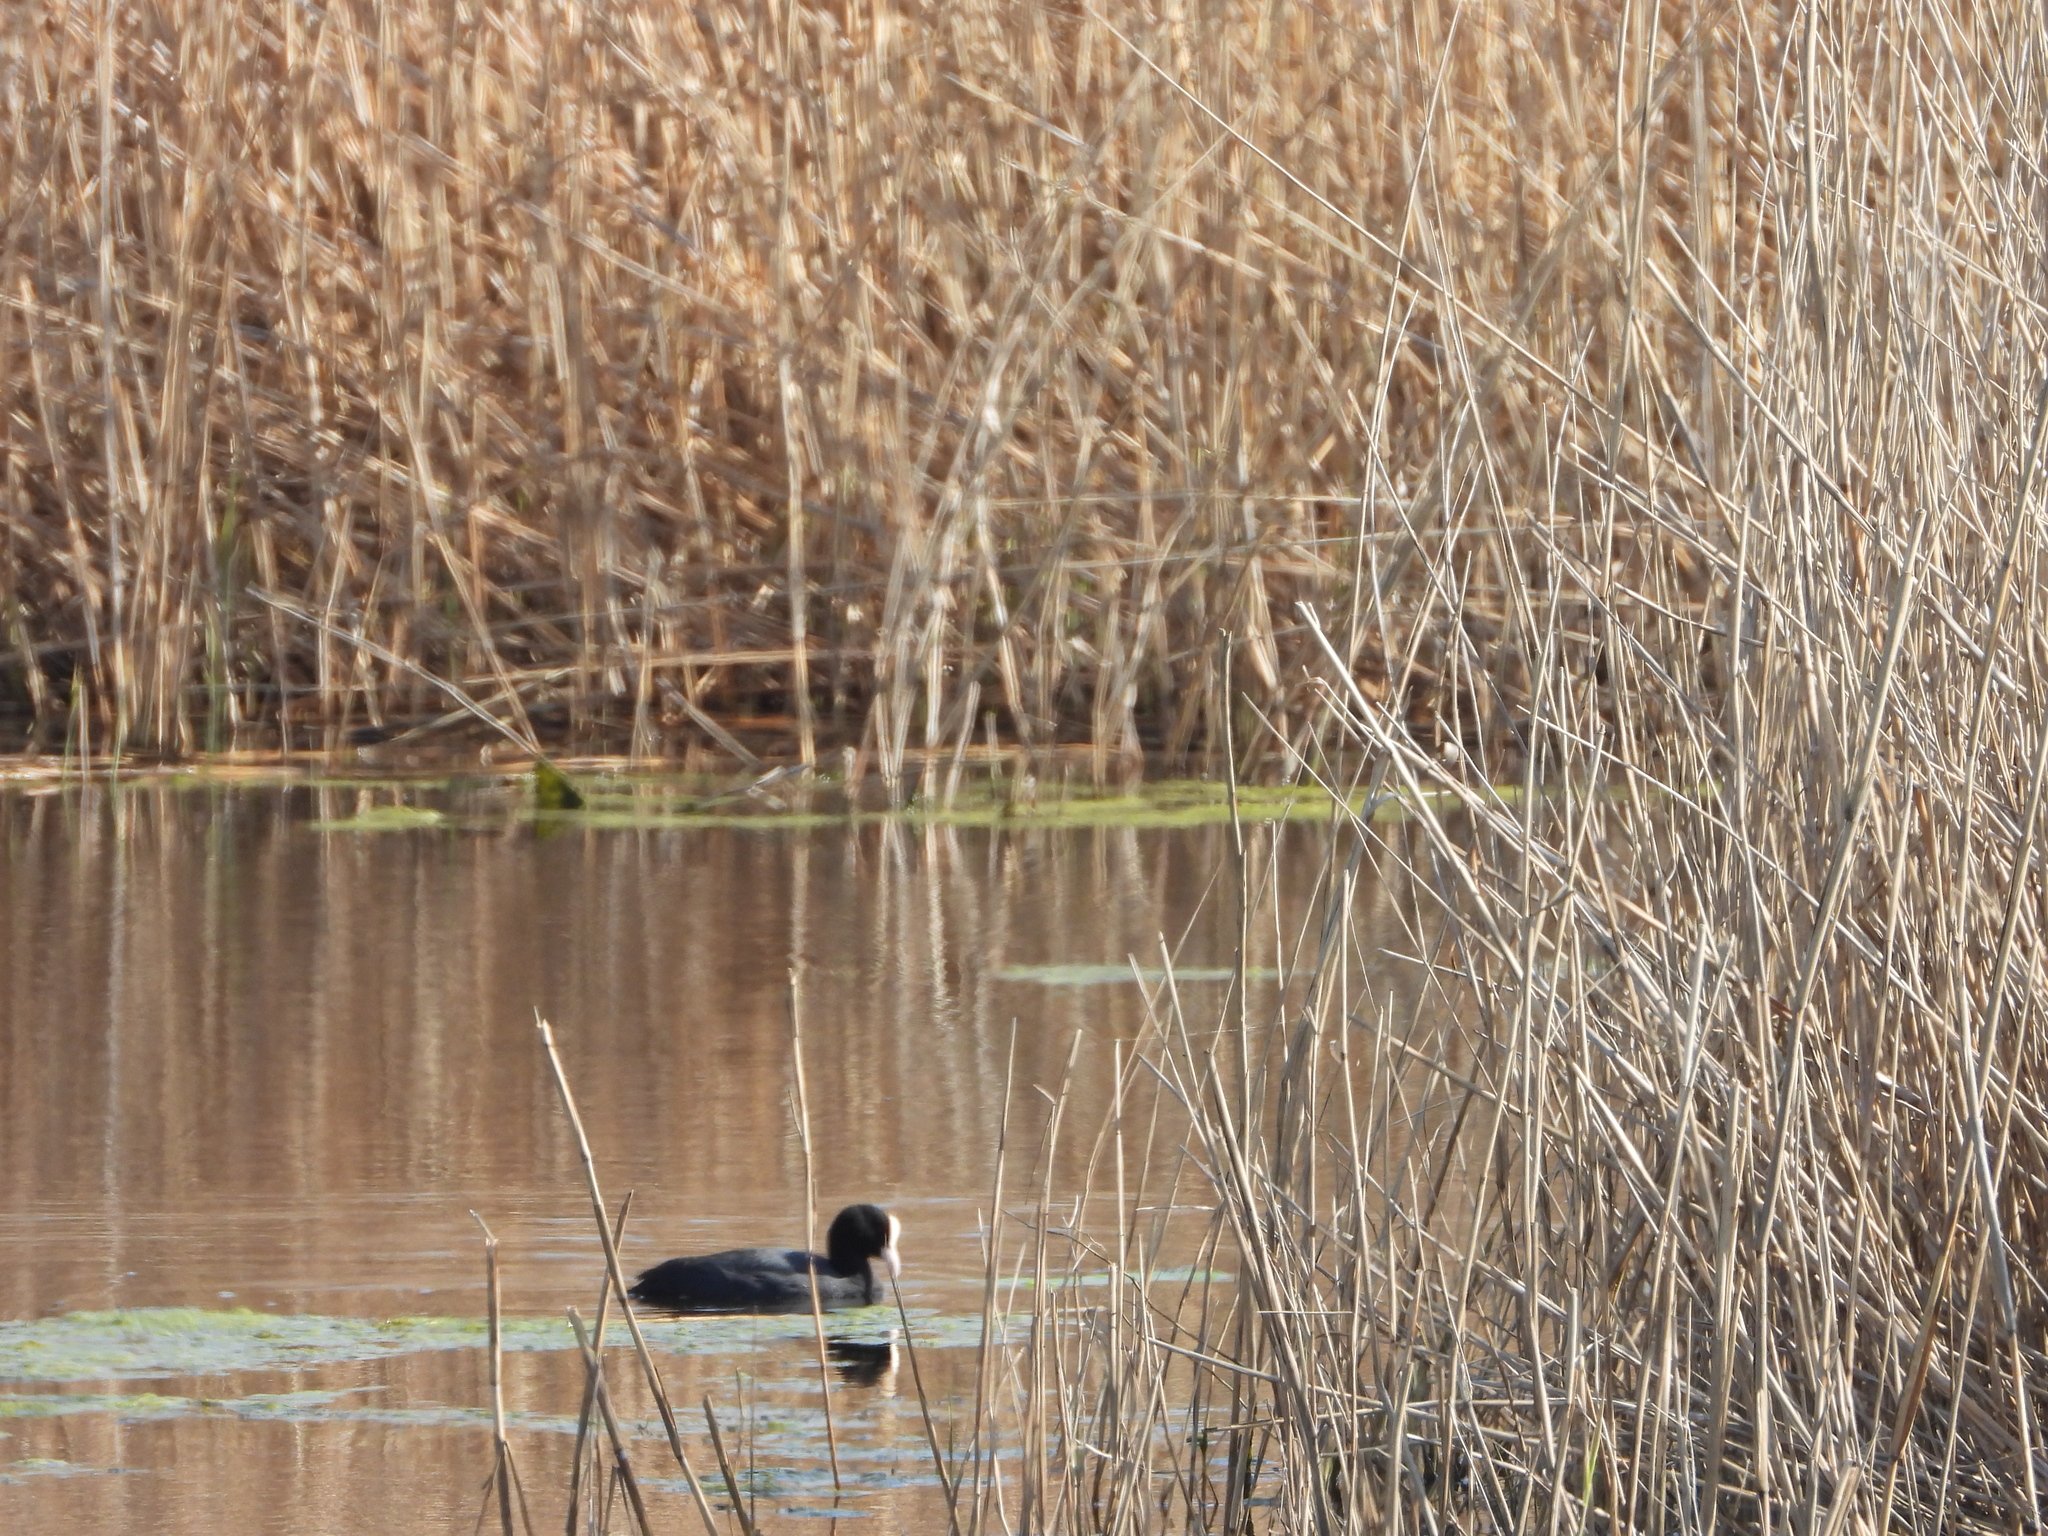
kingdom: Animalia
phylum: Chordata
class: Aves
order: Gruiformes
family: Rallidae
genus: Fulica
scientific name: Fulica atra
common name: Eurasian coot
